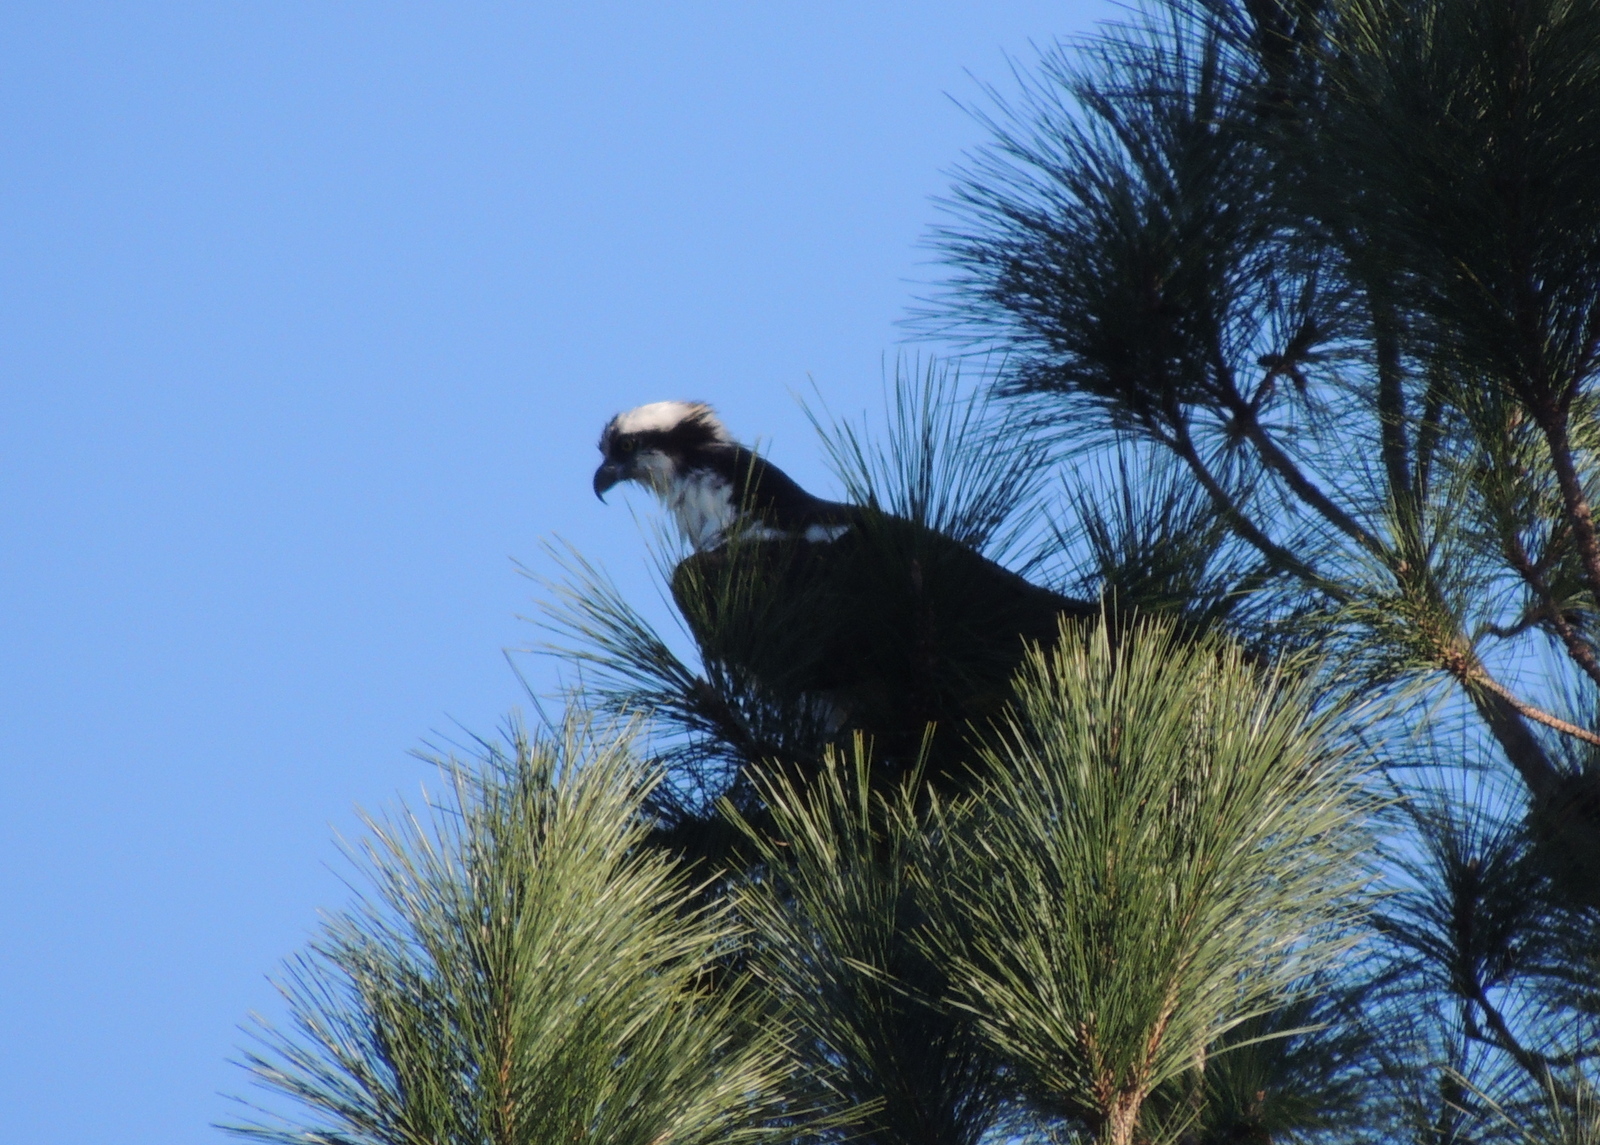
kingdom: Animalia
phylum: Chordata
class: Aves
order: Accipitriformes
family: Pandionidae
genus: Pandion
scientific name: Pandion haliaetus
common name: Osprey
